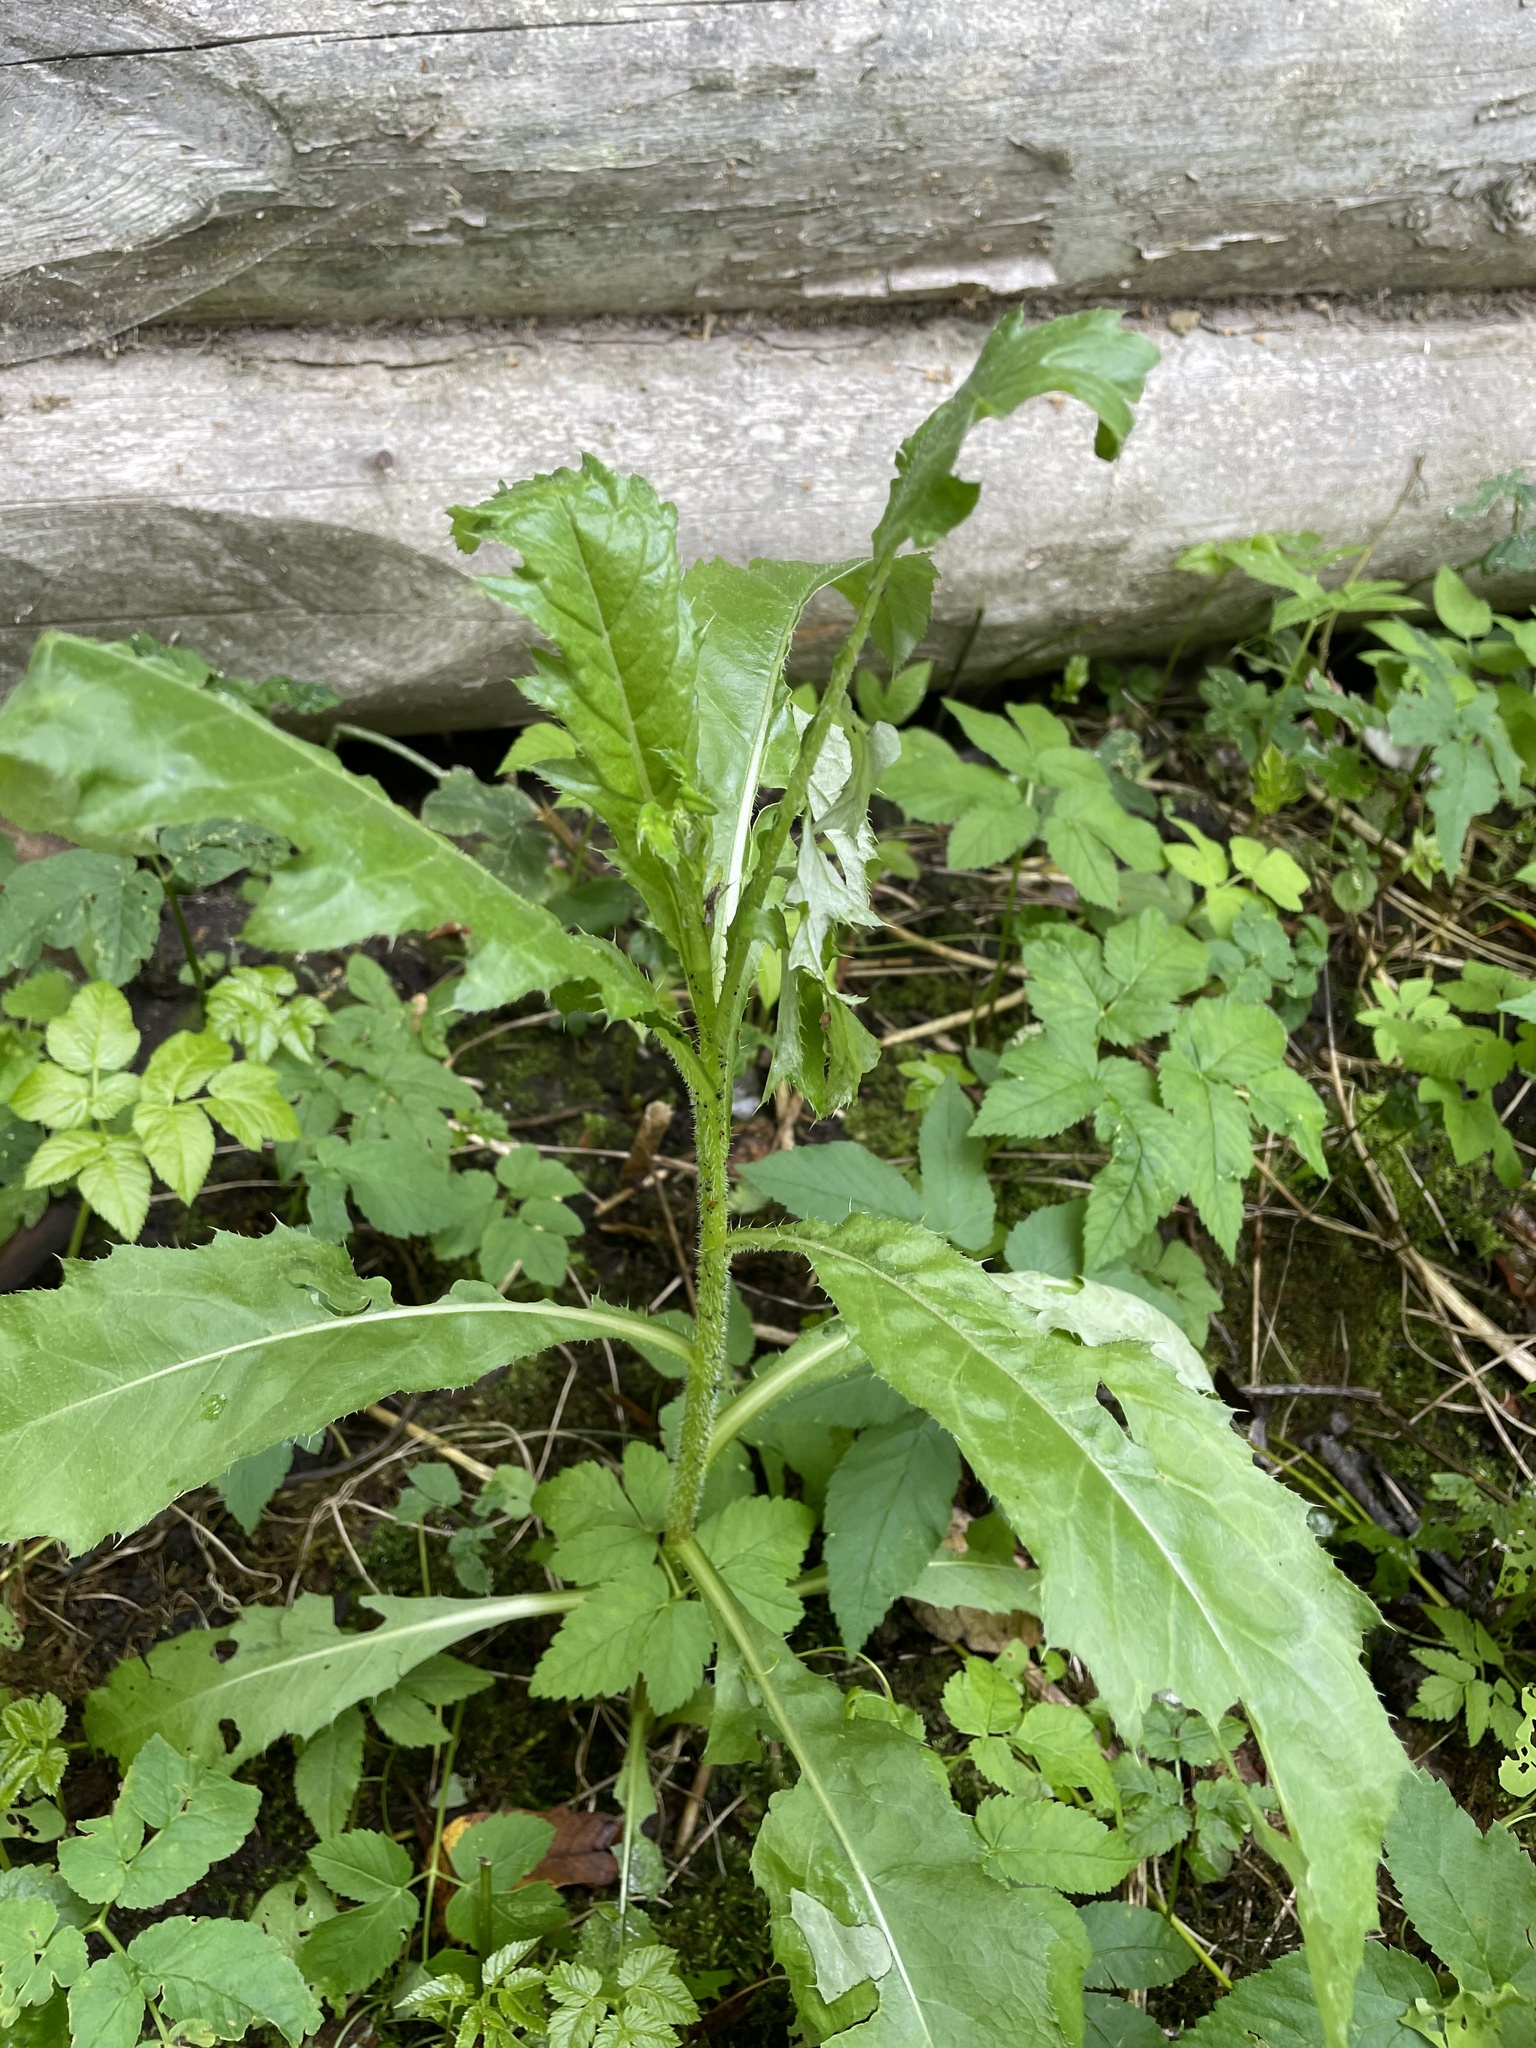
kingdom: Plantae
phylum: Tracheophyta
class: Magnoliopsida
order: Asterales
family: Asteraceae
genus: Cirsium
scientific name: Cirsium arvense
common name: Creeping thistle
